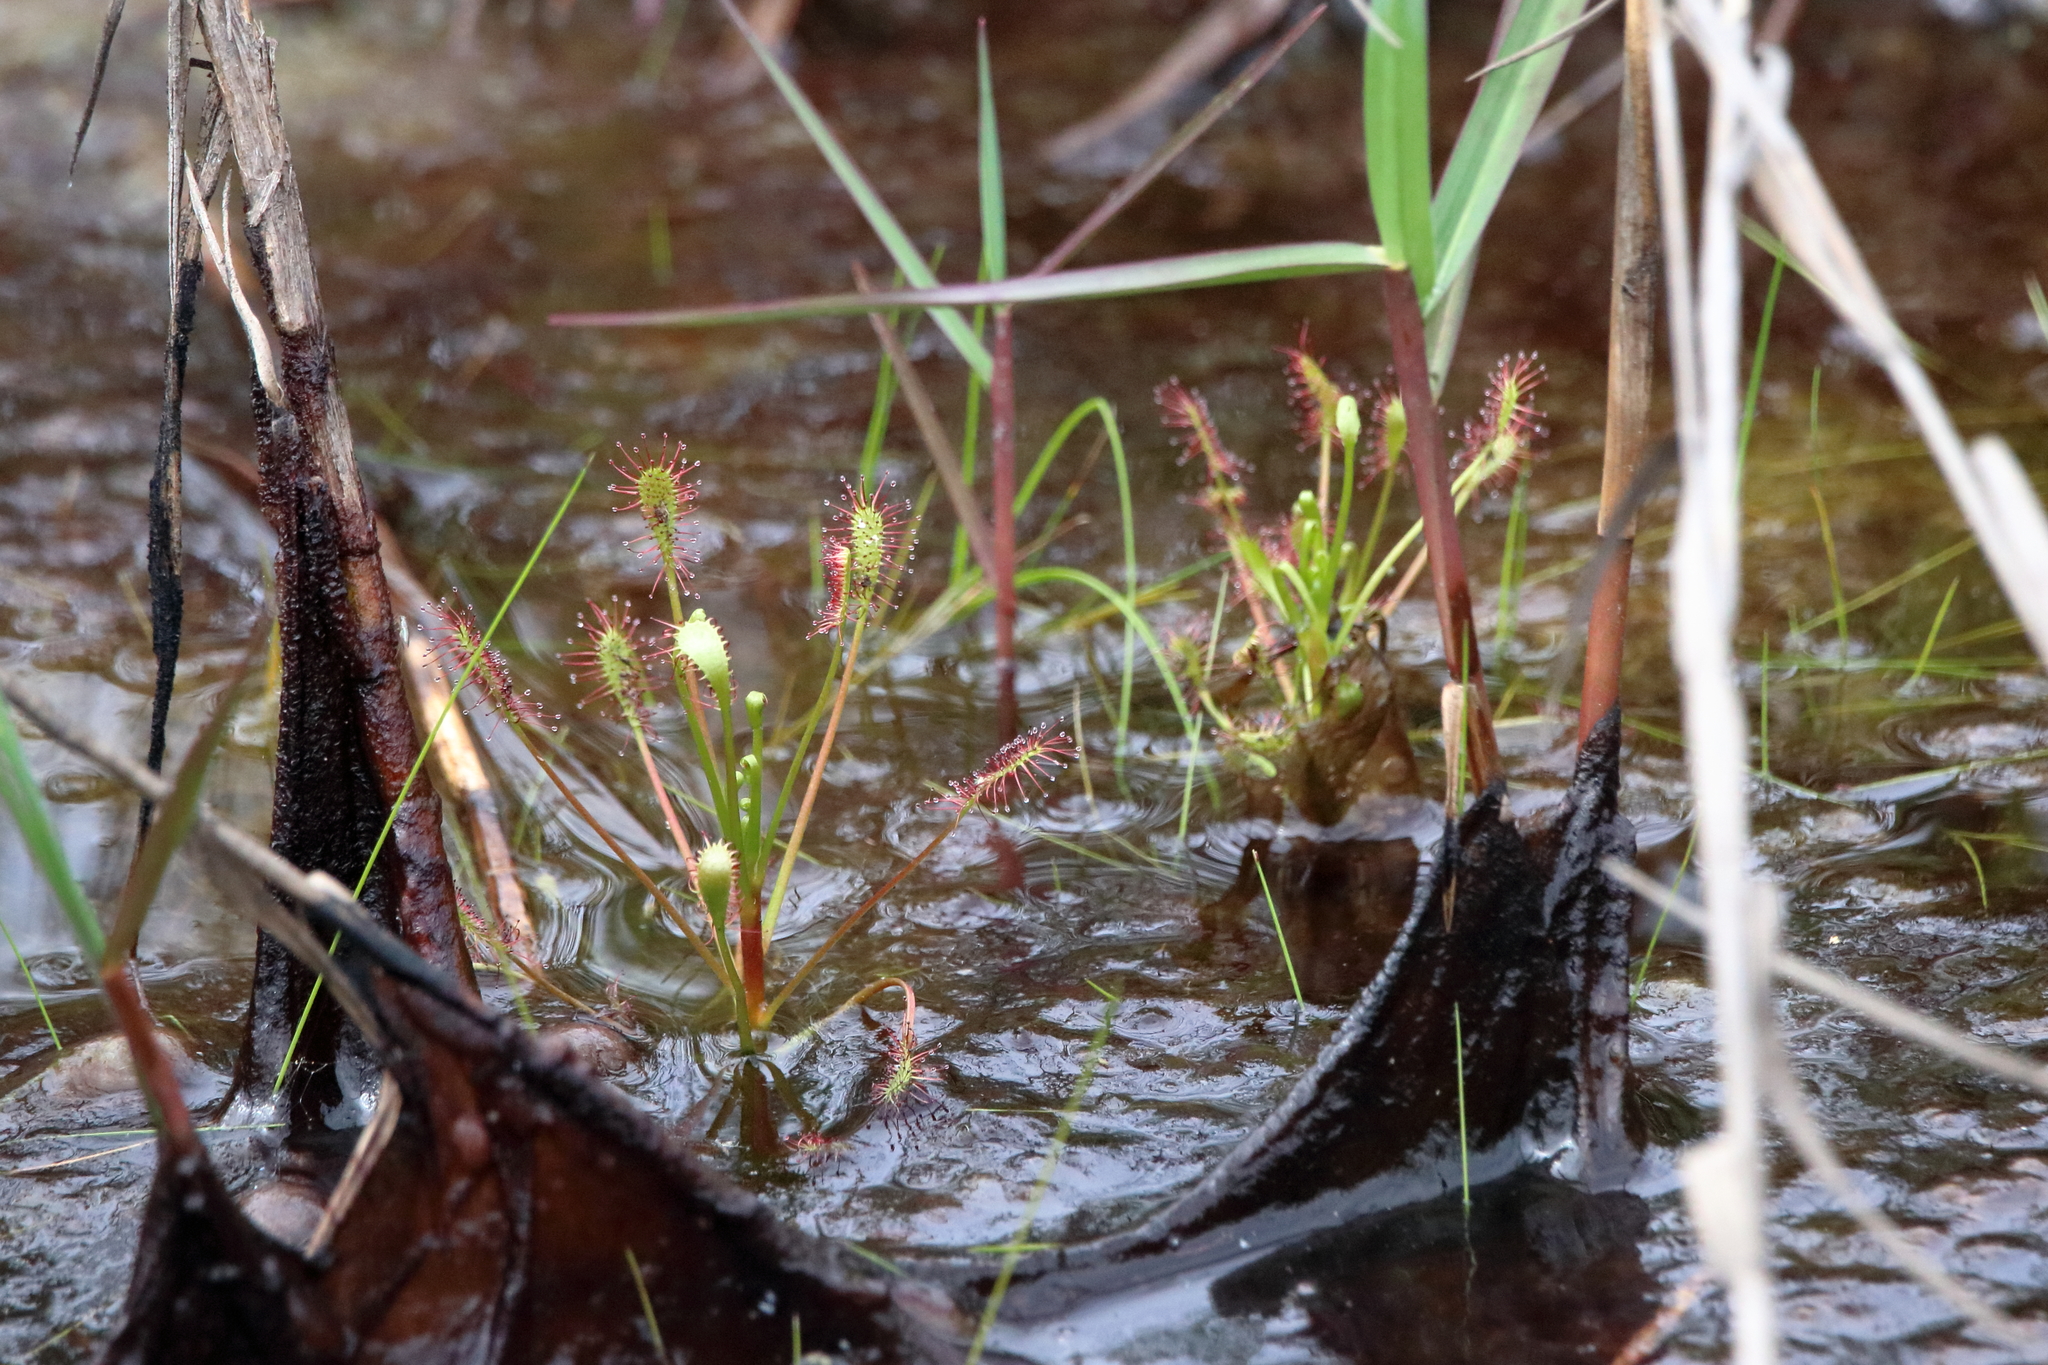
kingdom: Plantae
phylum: Tracheophyta
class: Magnoliopsida
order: Caryophyllales
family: Droseraceae
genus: Drosera
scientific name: Drosera intermedia
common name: Oblong-leaved sundew
